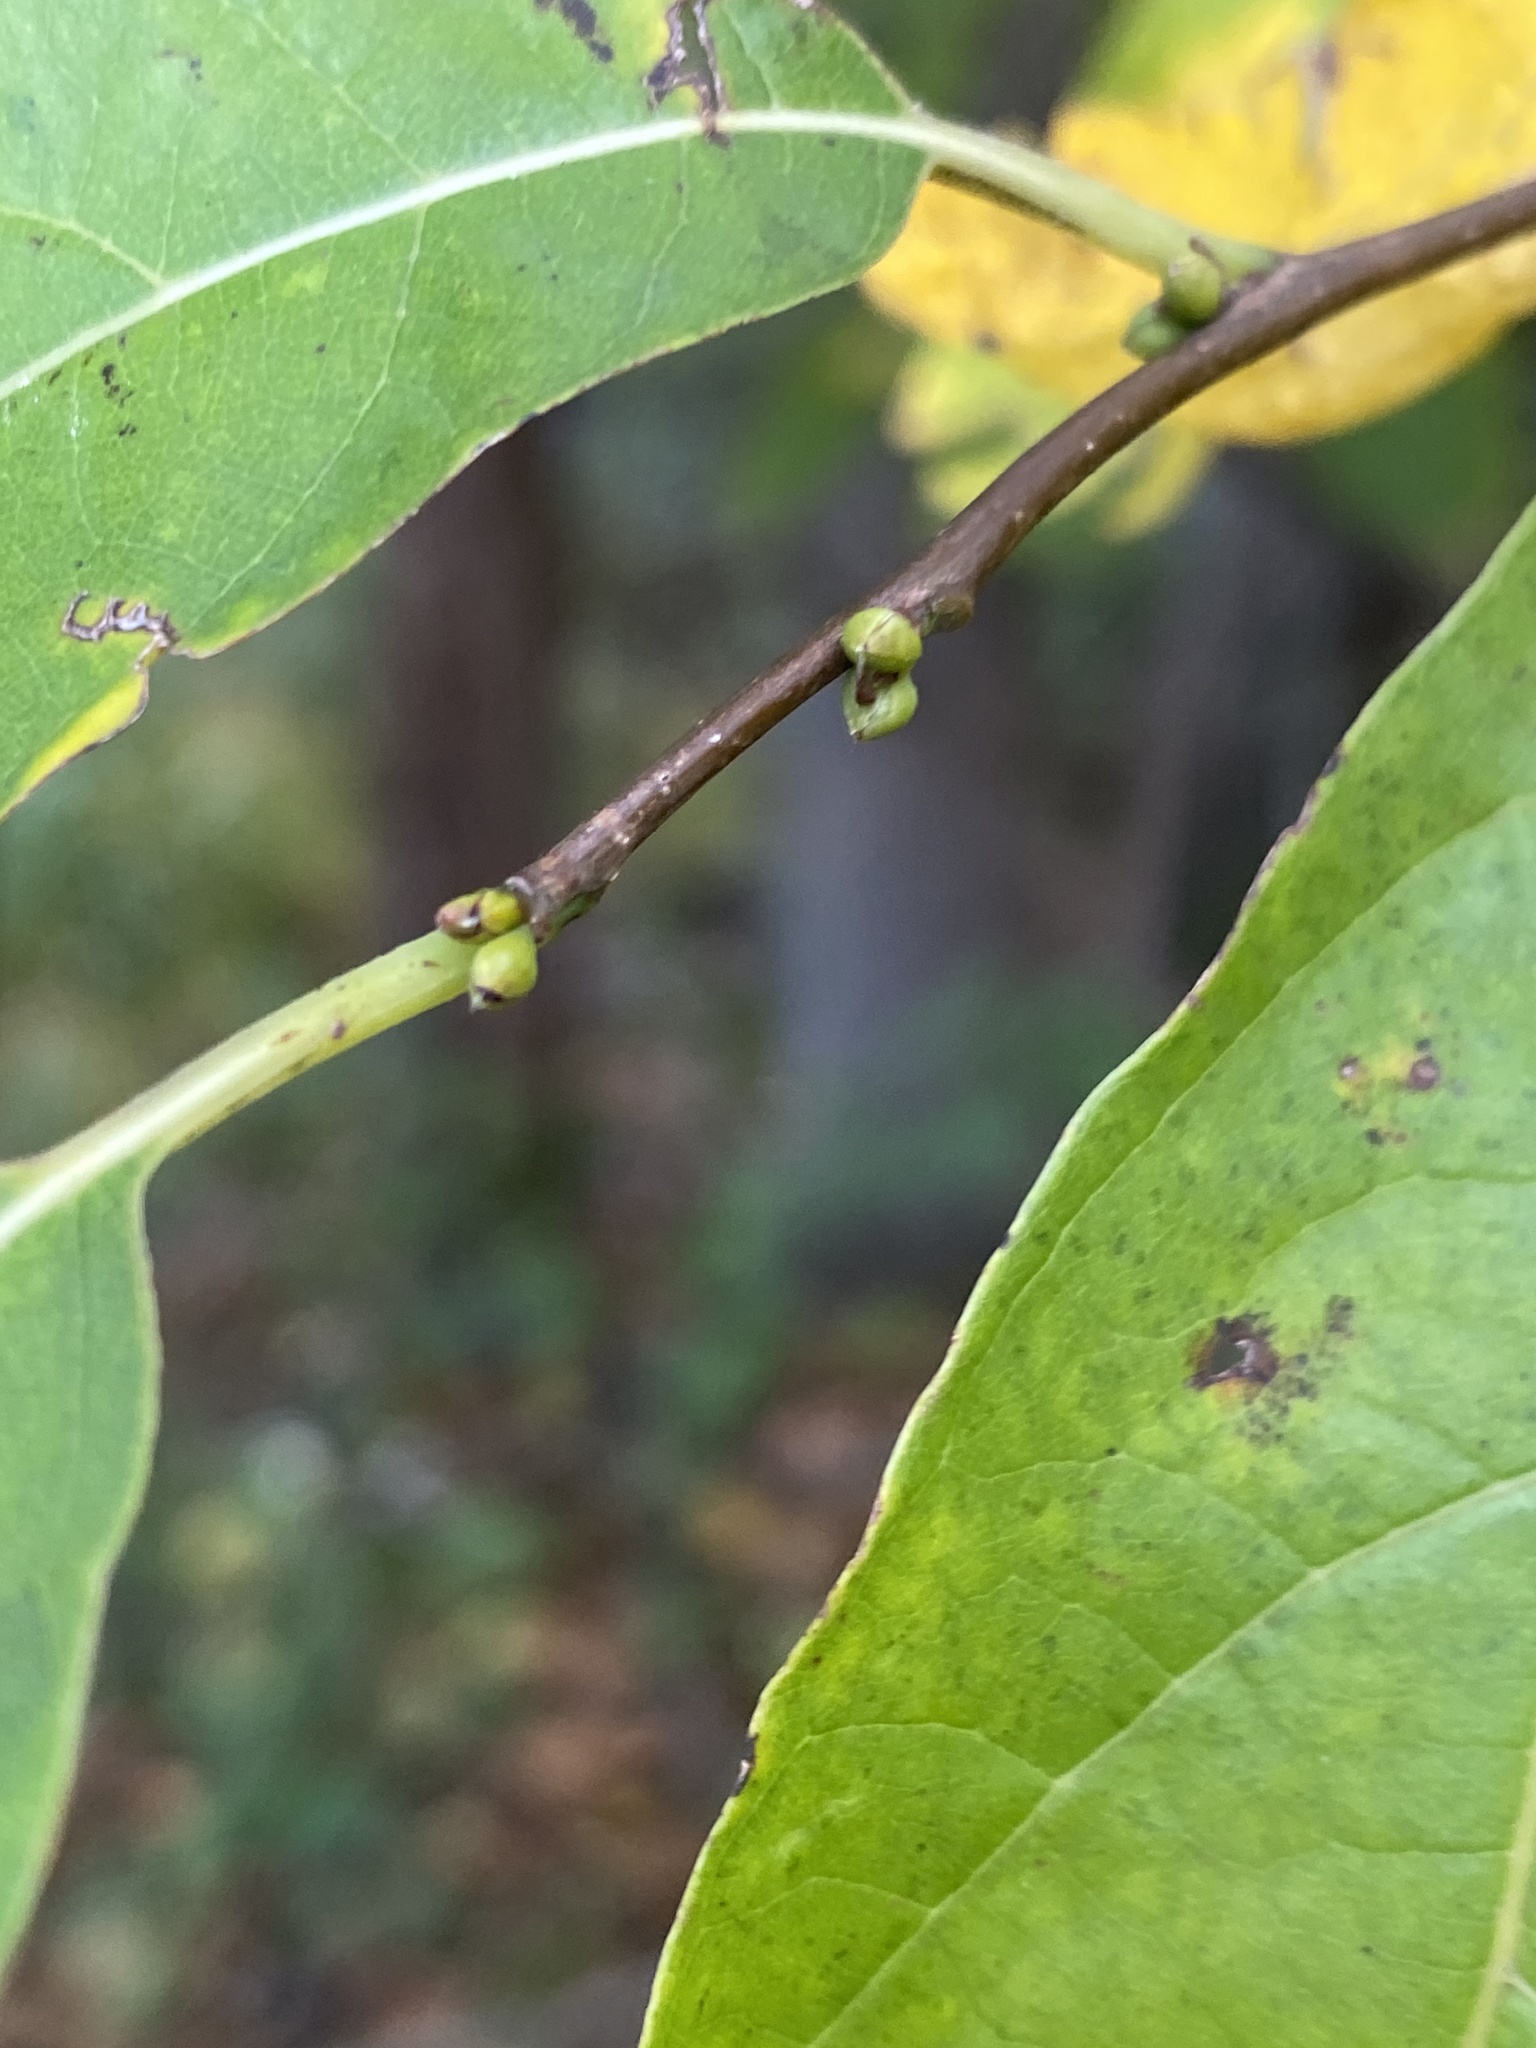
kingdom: Plantae
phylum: Tracheophyta
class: Magnoliopsida
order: Laurales
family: Lauraceae
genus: Lindera
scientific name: Lindera benzoin
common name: Spicebush
